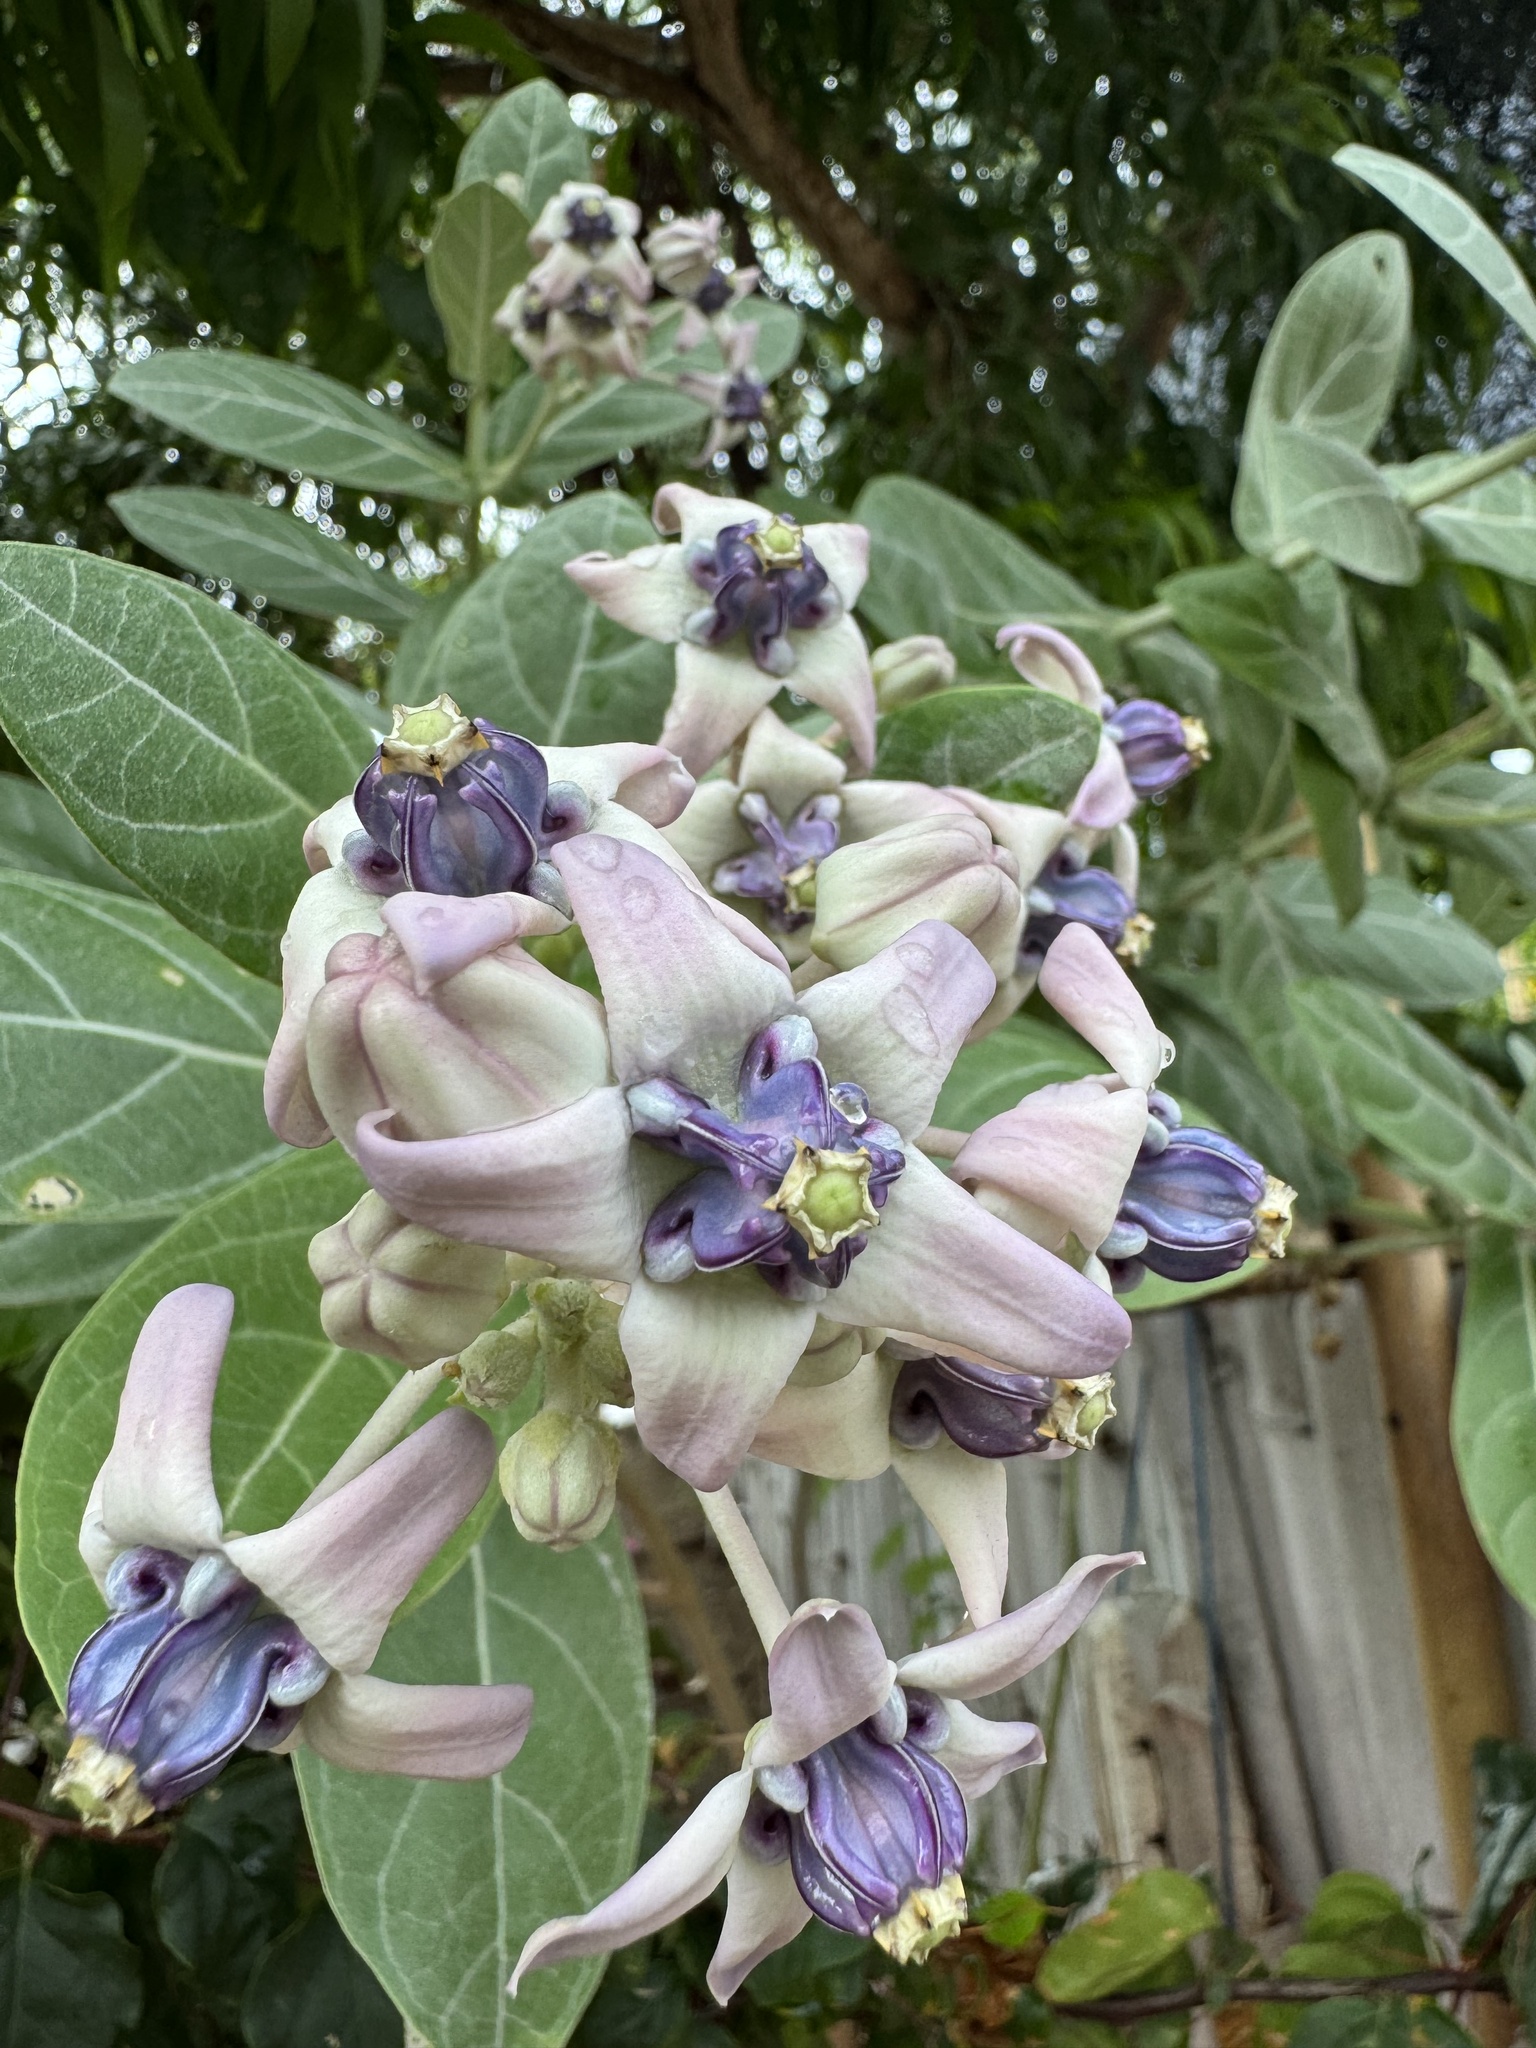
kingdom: Plantae
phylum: Tracheophyta
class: Magnoliopsida
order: Gentianales
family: Apocynaceae
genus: Calotropis
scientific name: Calotropis gigantea
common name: Crown flower
